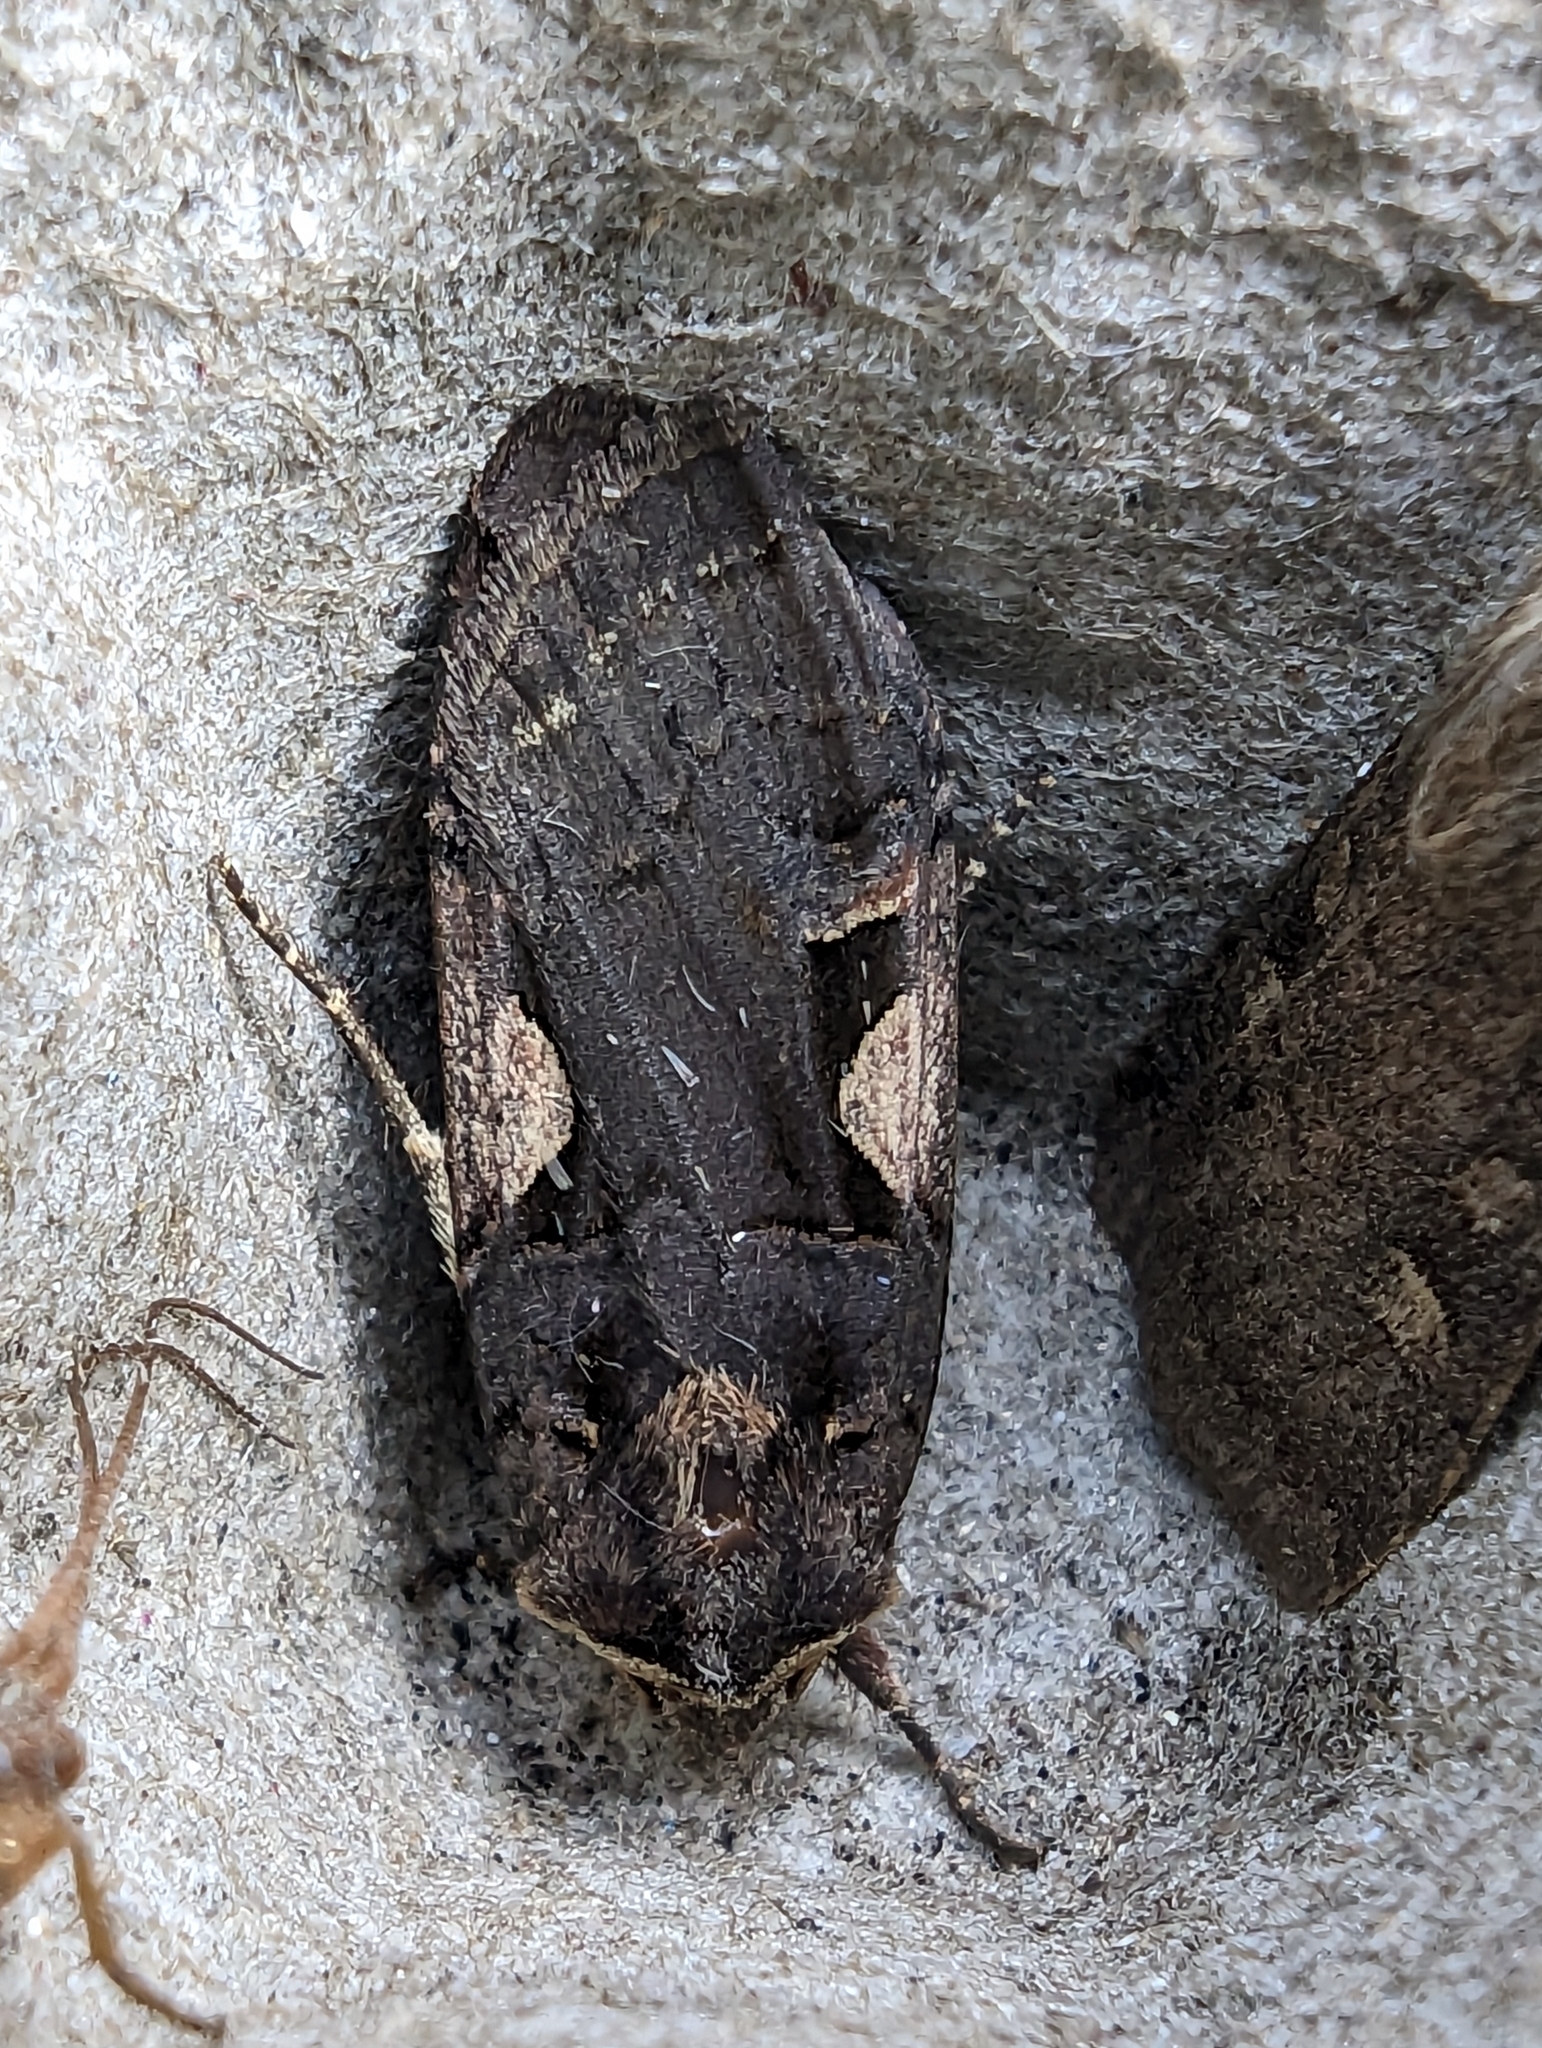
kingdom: Animalia
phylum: Arthropoda
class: Insecta
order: Lepidoptera
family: Noctuidae
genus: Xestia
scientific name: Xestia c-nigrum
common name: Setaceous hebrew character
